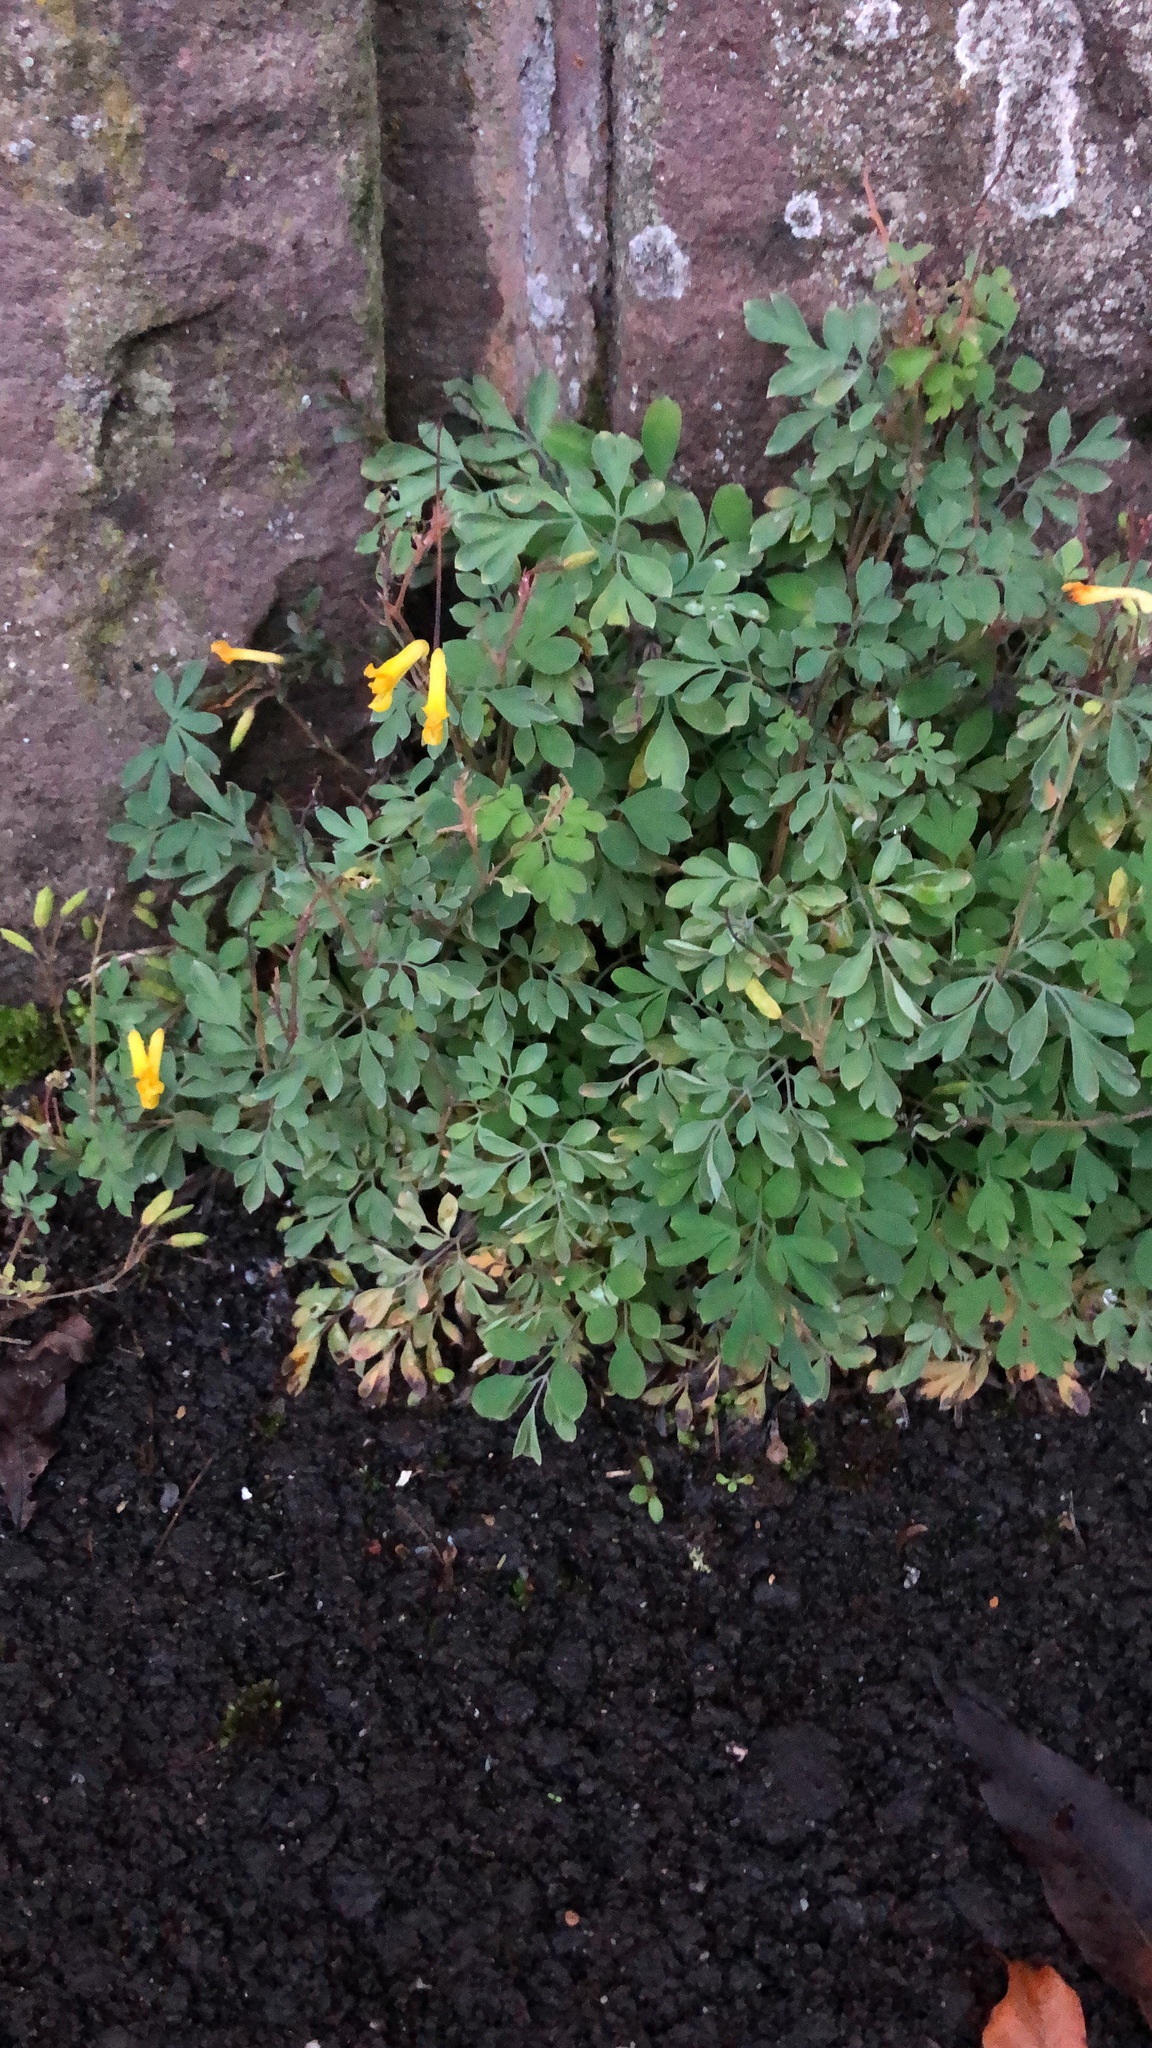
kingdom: Plantae
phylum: Tracheophyta
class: Magnoliopsida
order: Ranunculales
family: Papaveraceae
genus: Pseudofumaria
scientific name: Pseudofumaria lutea
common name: Yellow corydalis
